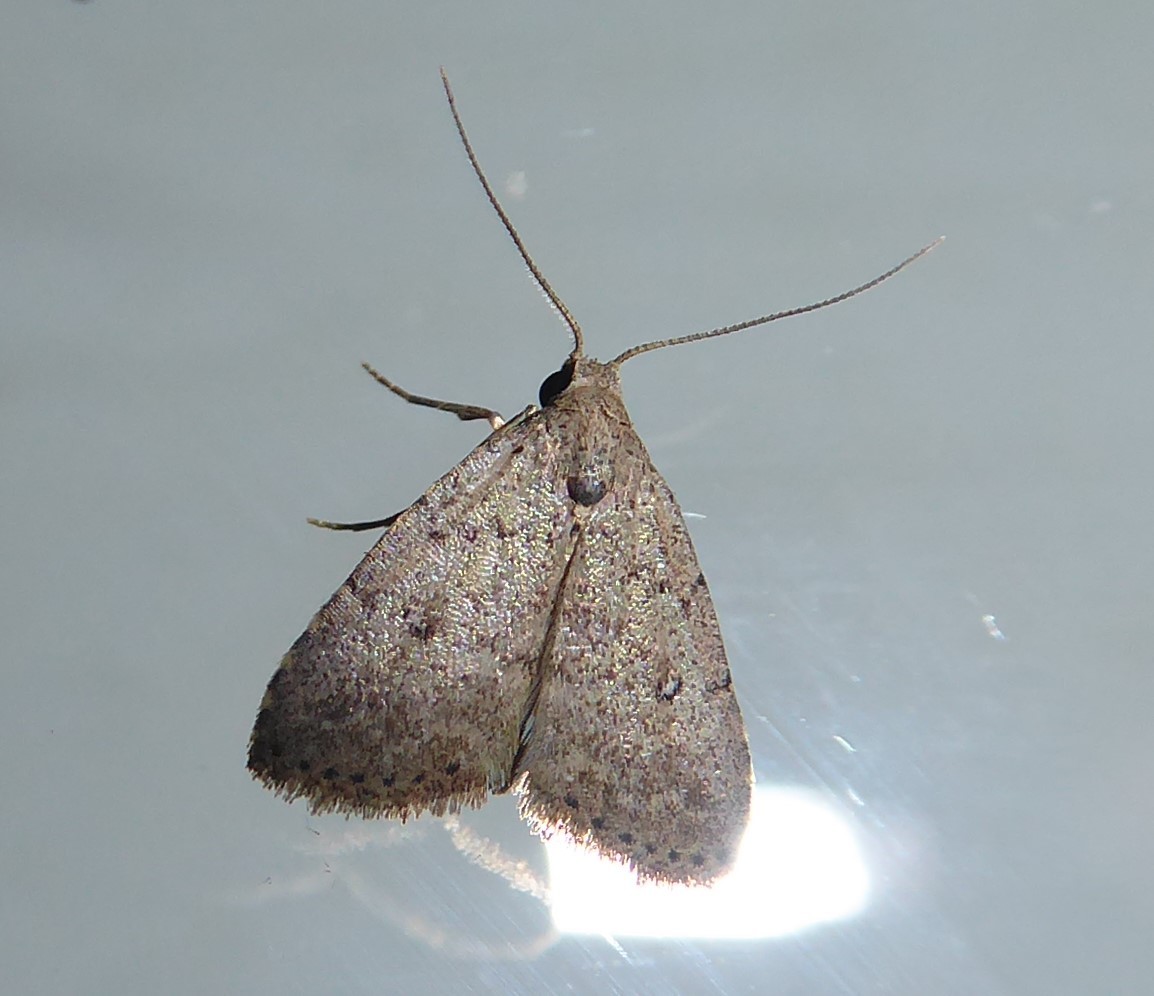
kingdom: Animalia
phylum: Arthropoda
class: Insecta
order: Lepidoptera
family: Erebidae
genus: Tolpiodes
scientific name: Tolpiodes oligolasia
